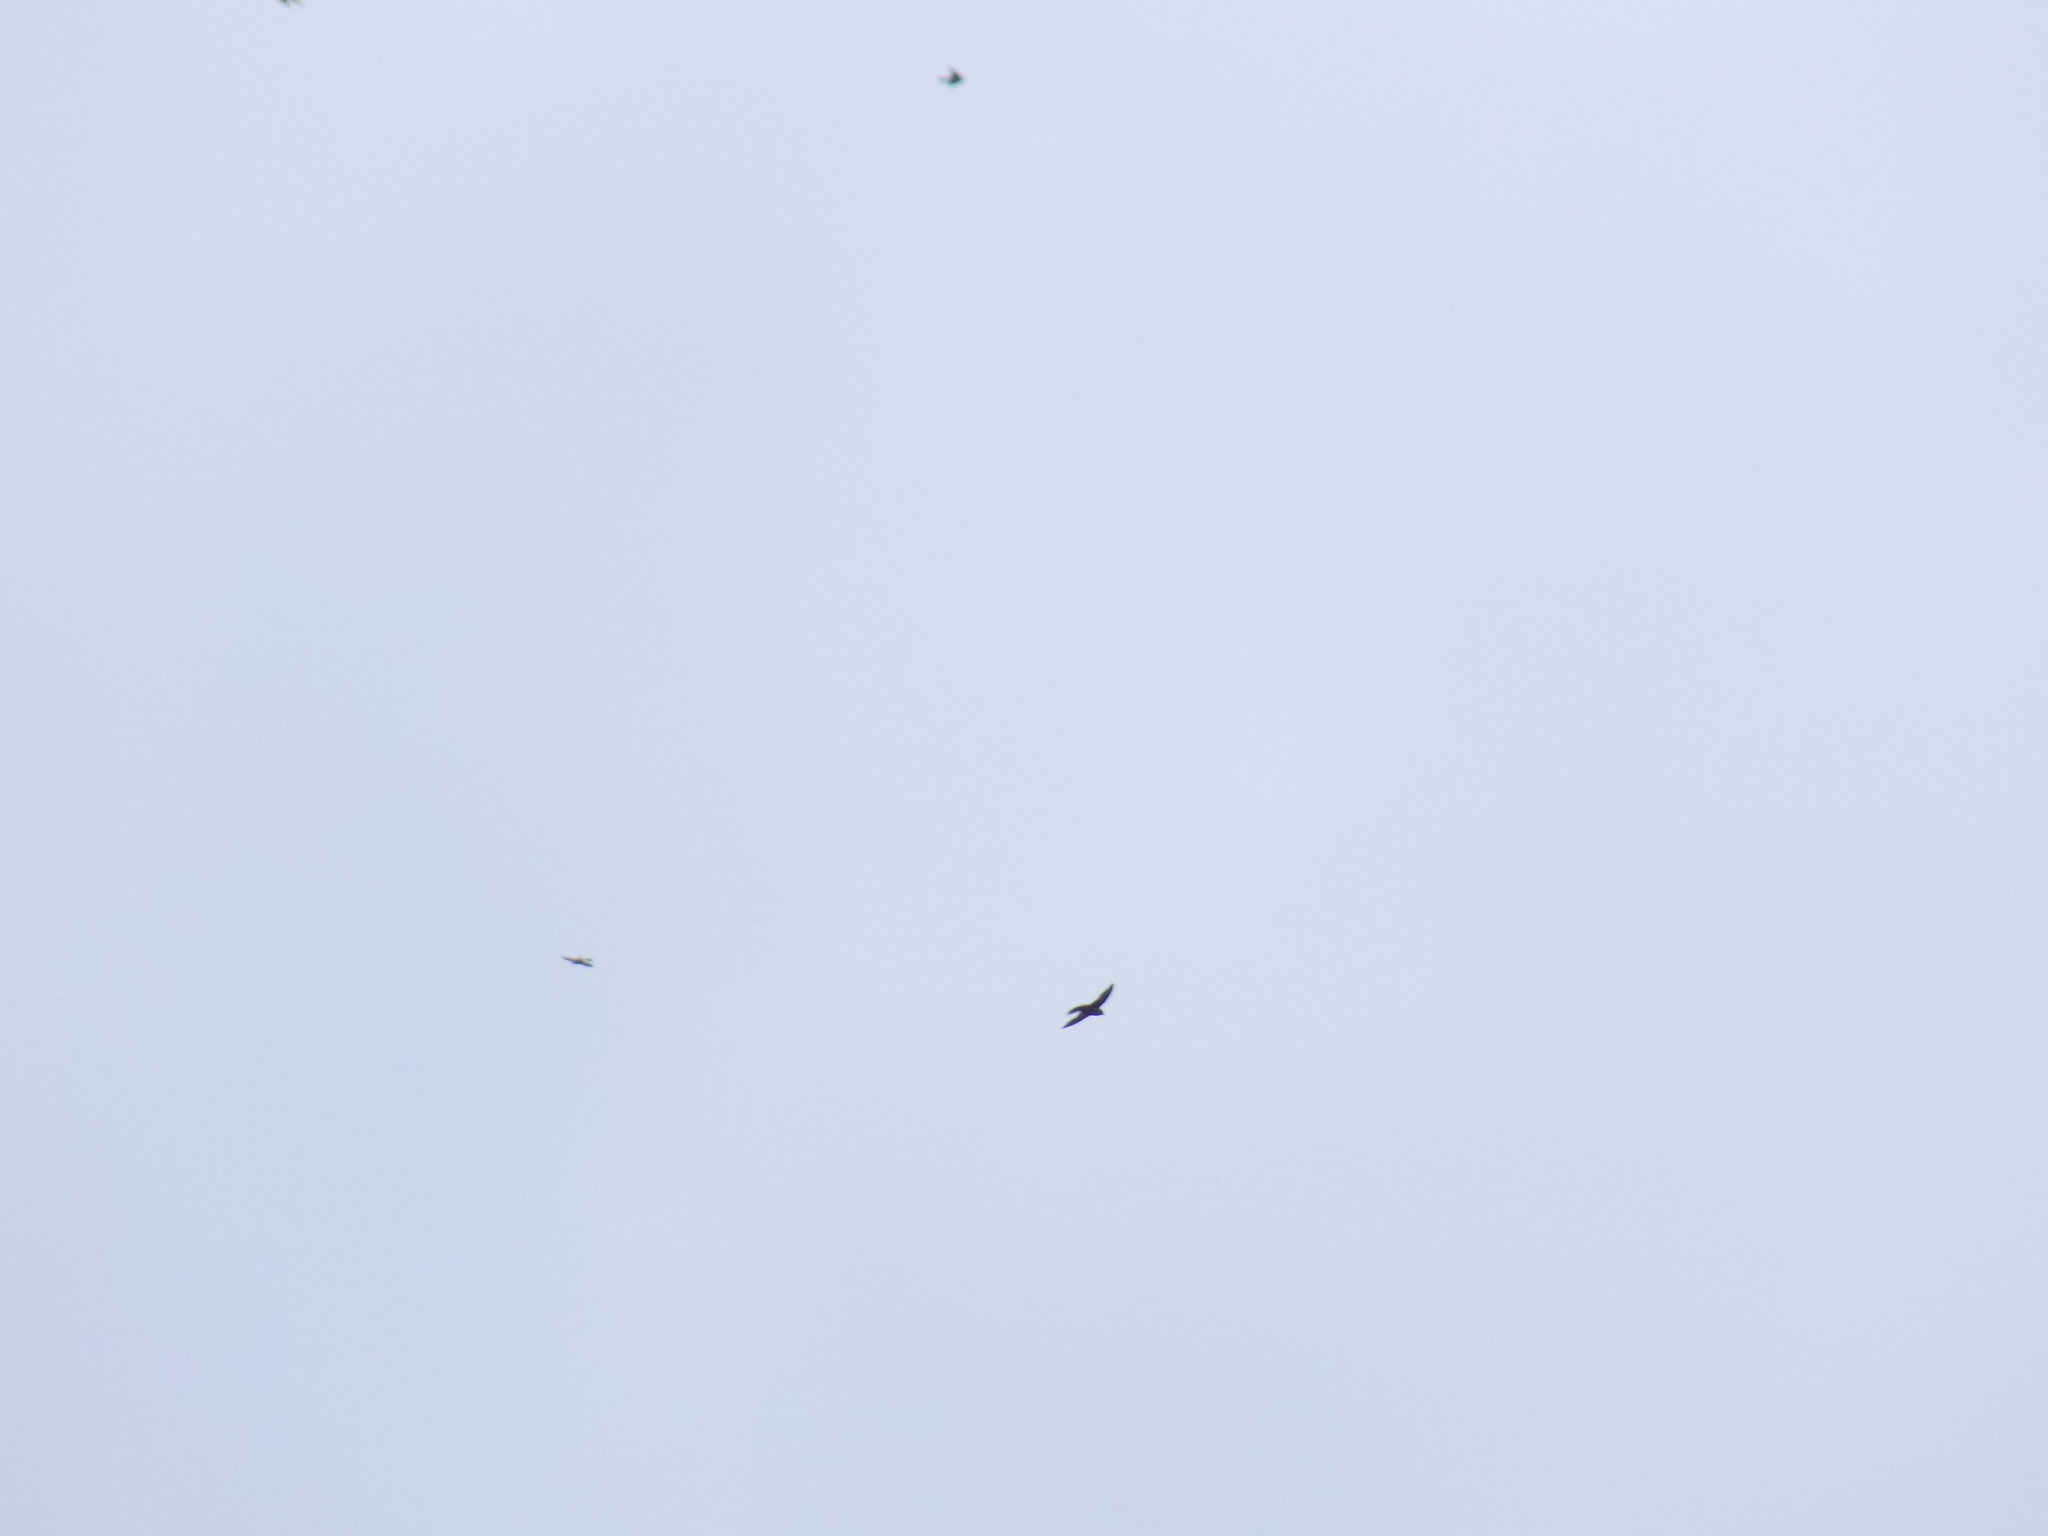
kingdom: Animalia
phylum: Chordata
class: Aves
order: Apodiformes
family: Apodidae
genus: Chaetura
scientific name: Chaetura pelagica
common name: Chimney swift
